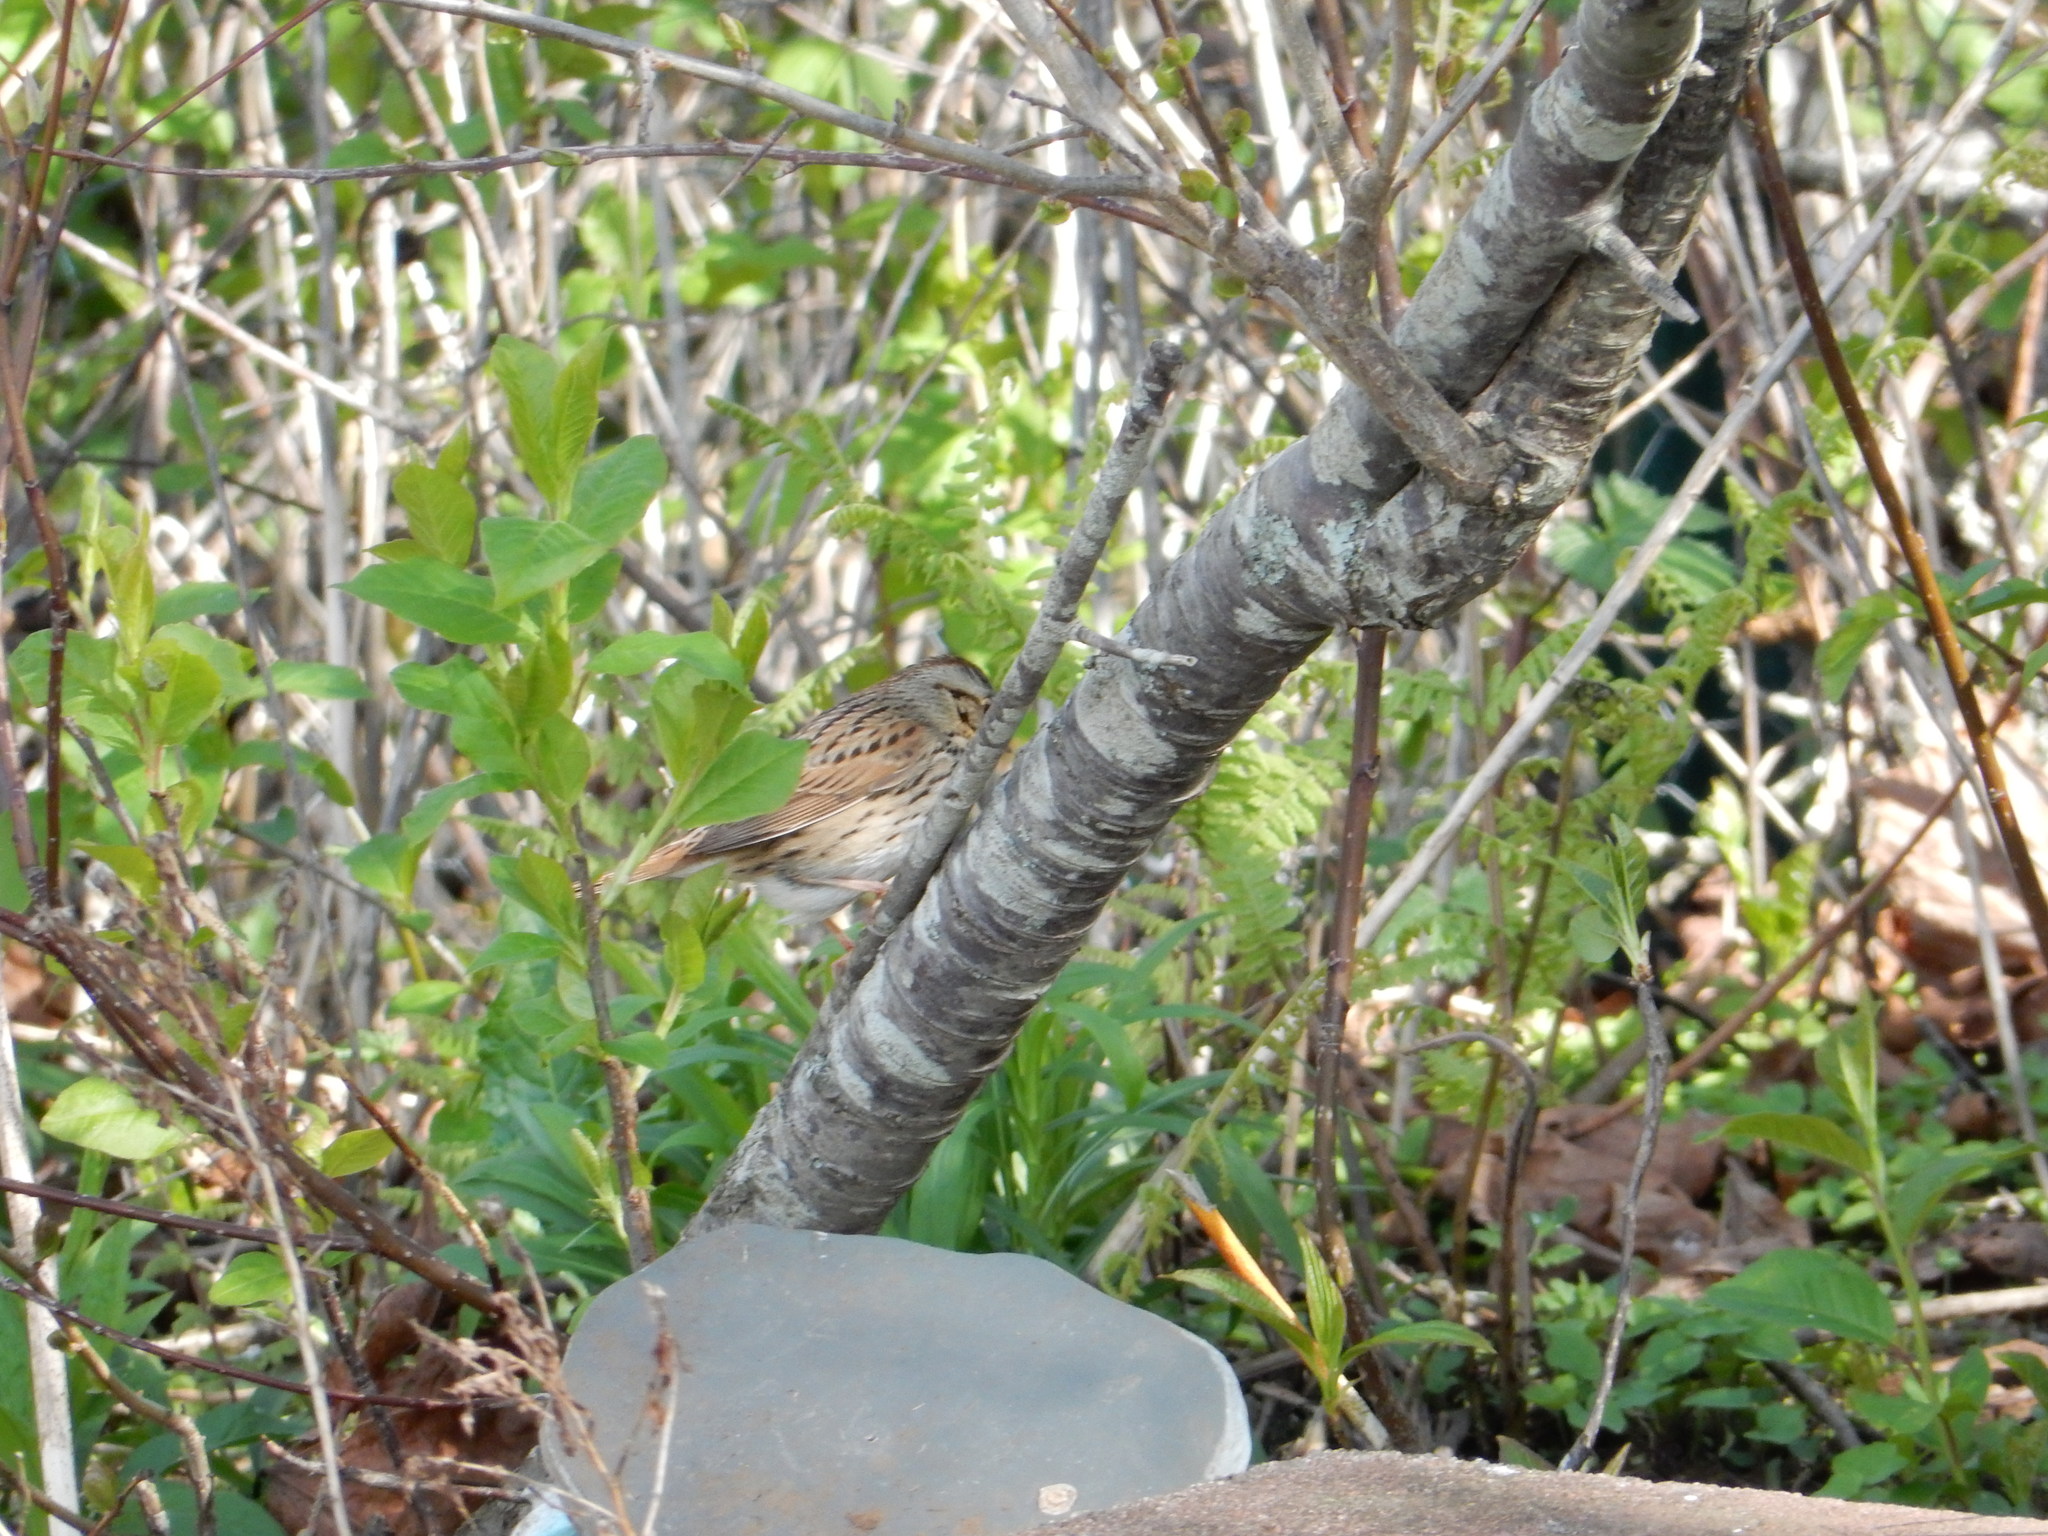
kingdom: Animalia
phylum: Chordata
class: Aves
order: Passeriformes
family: Passerellidae
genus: Melospiza
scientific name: Melospiza lincolnii
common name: Lincoln's sparrow
